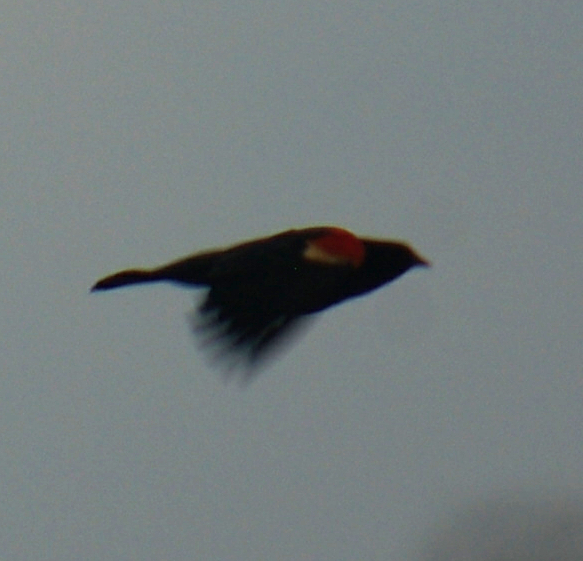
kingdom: Animalia
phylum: Chordata
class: Aves
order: Passeriformes
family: Icteridae
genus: Agelaius
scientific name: Agelaius phoeniceus
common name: Red-winged blackbird
